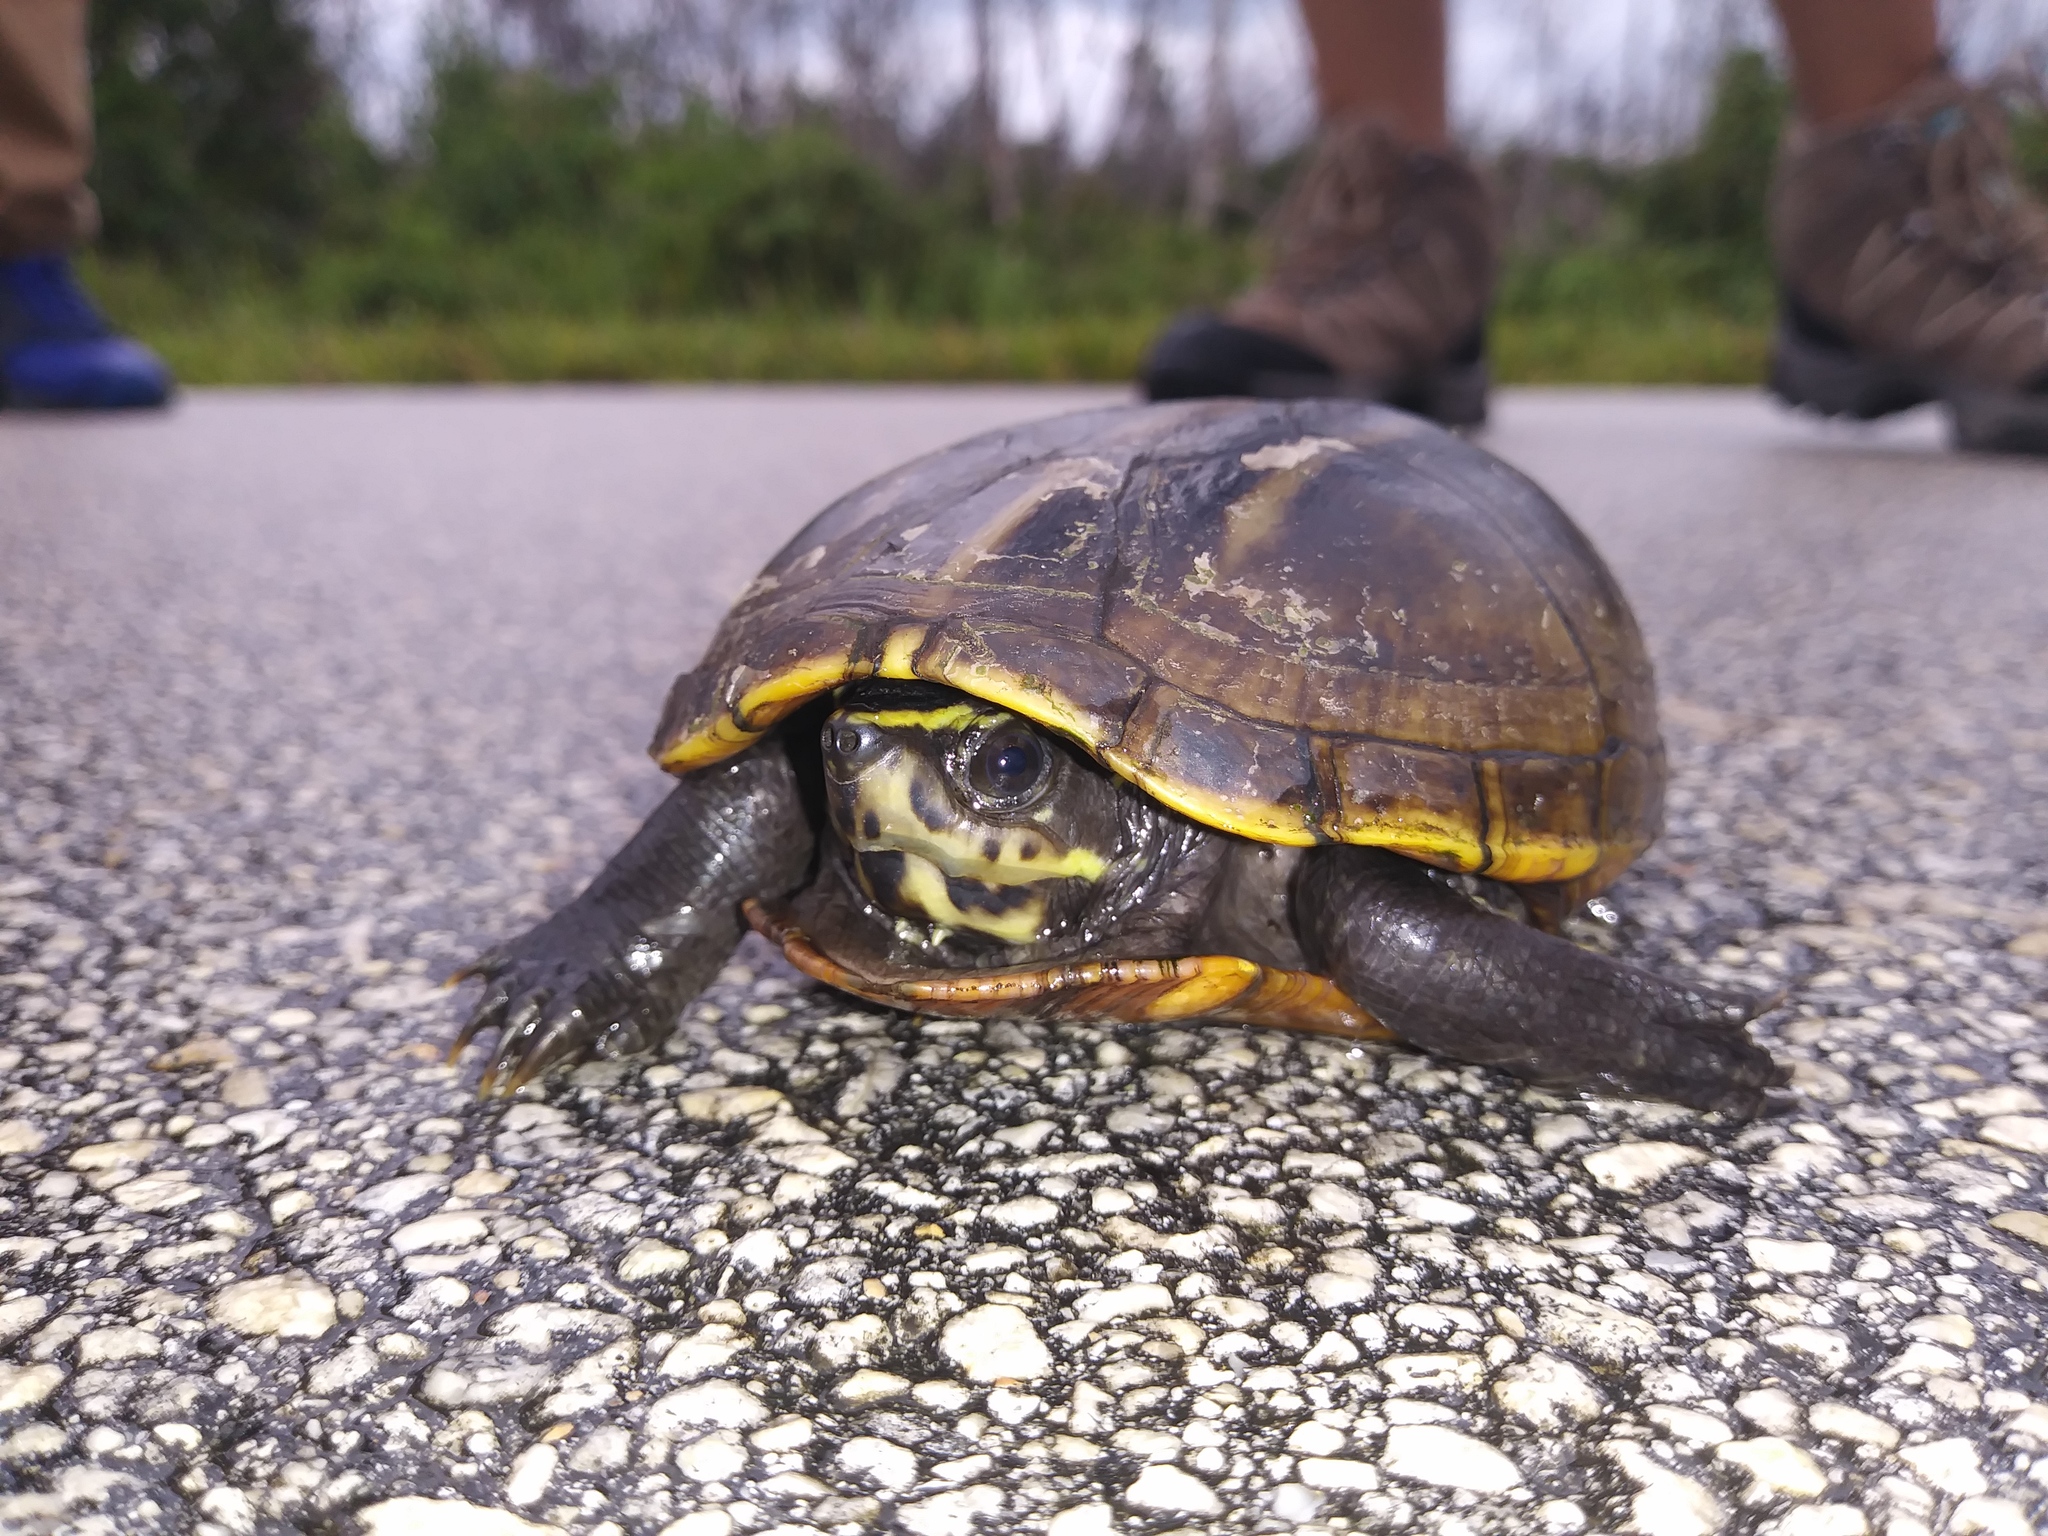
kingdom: Animalia
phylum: Chordata
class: Testudines
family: Kinosternidae
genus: Kinosternon
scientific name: Kinosternon baurii
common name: Striped mud turtle
